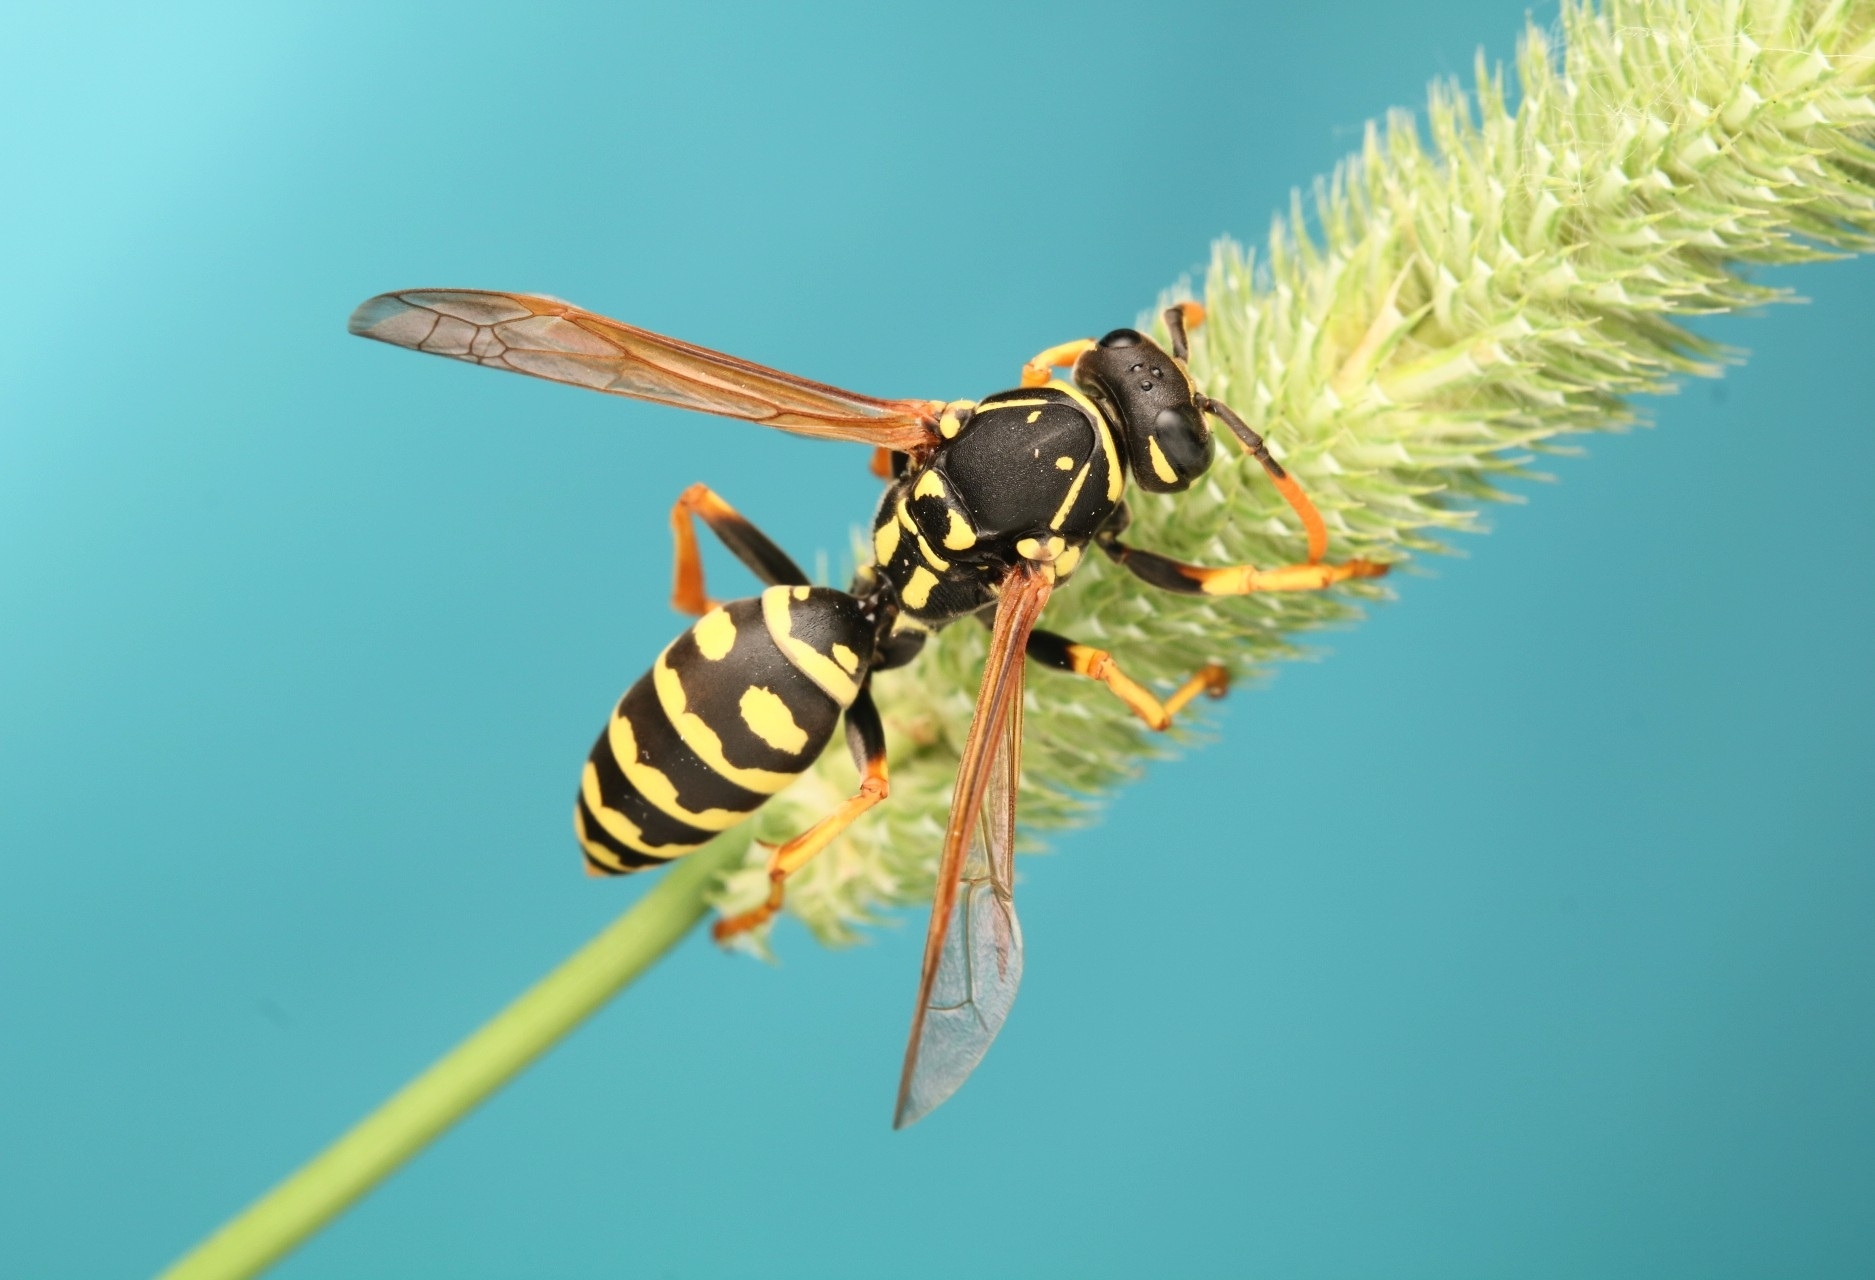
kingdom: Animalia
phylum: Arthropoda
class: Insecta
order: Hymenoptera
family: Eumenidae
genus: Polistes
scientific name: Polistes dominula
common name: Paper wasp
